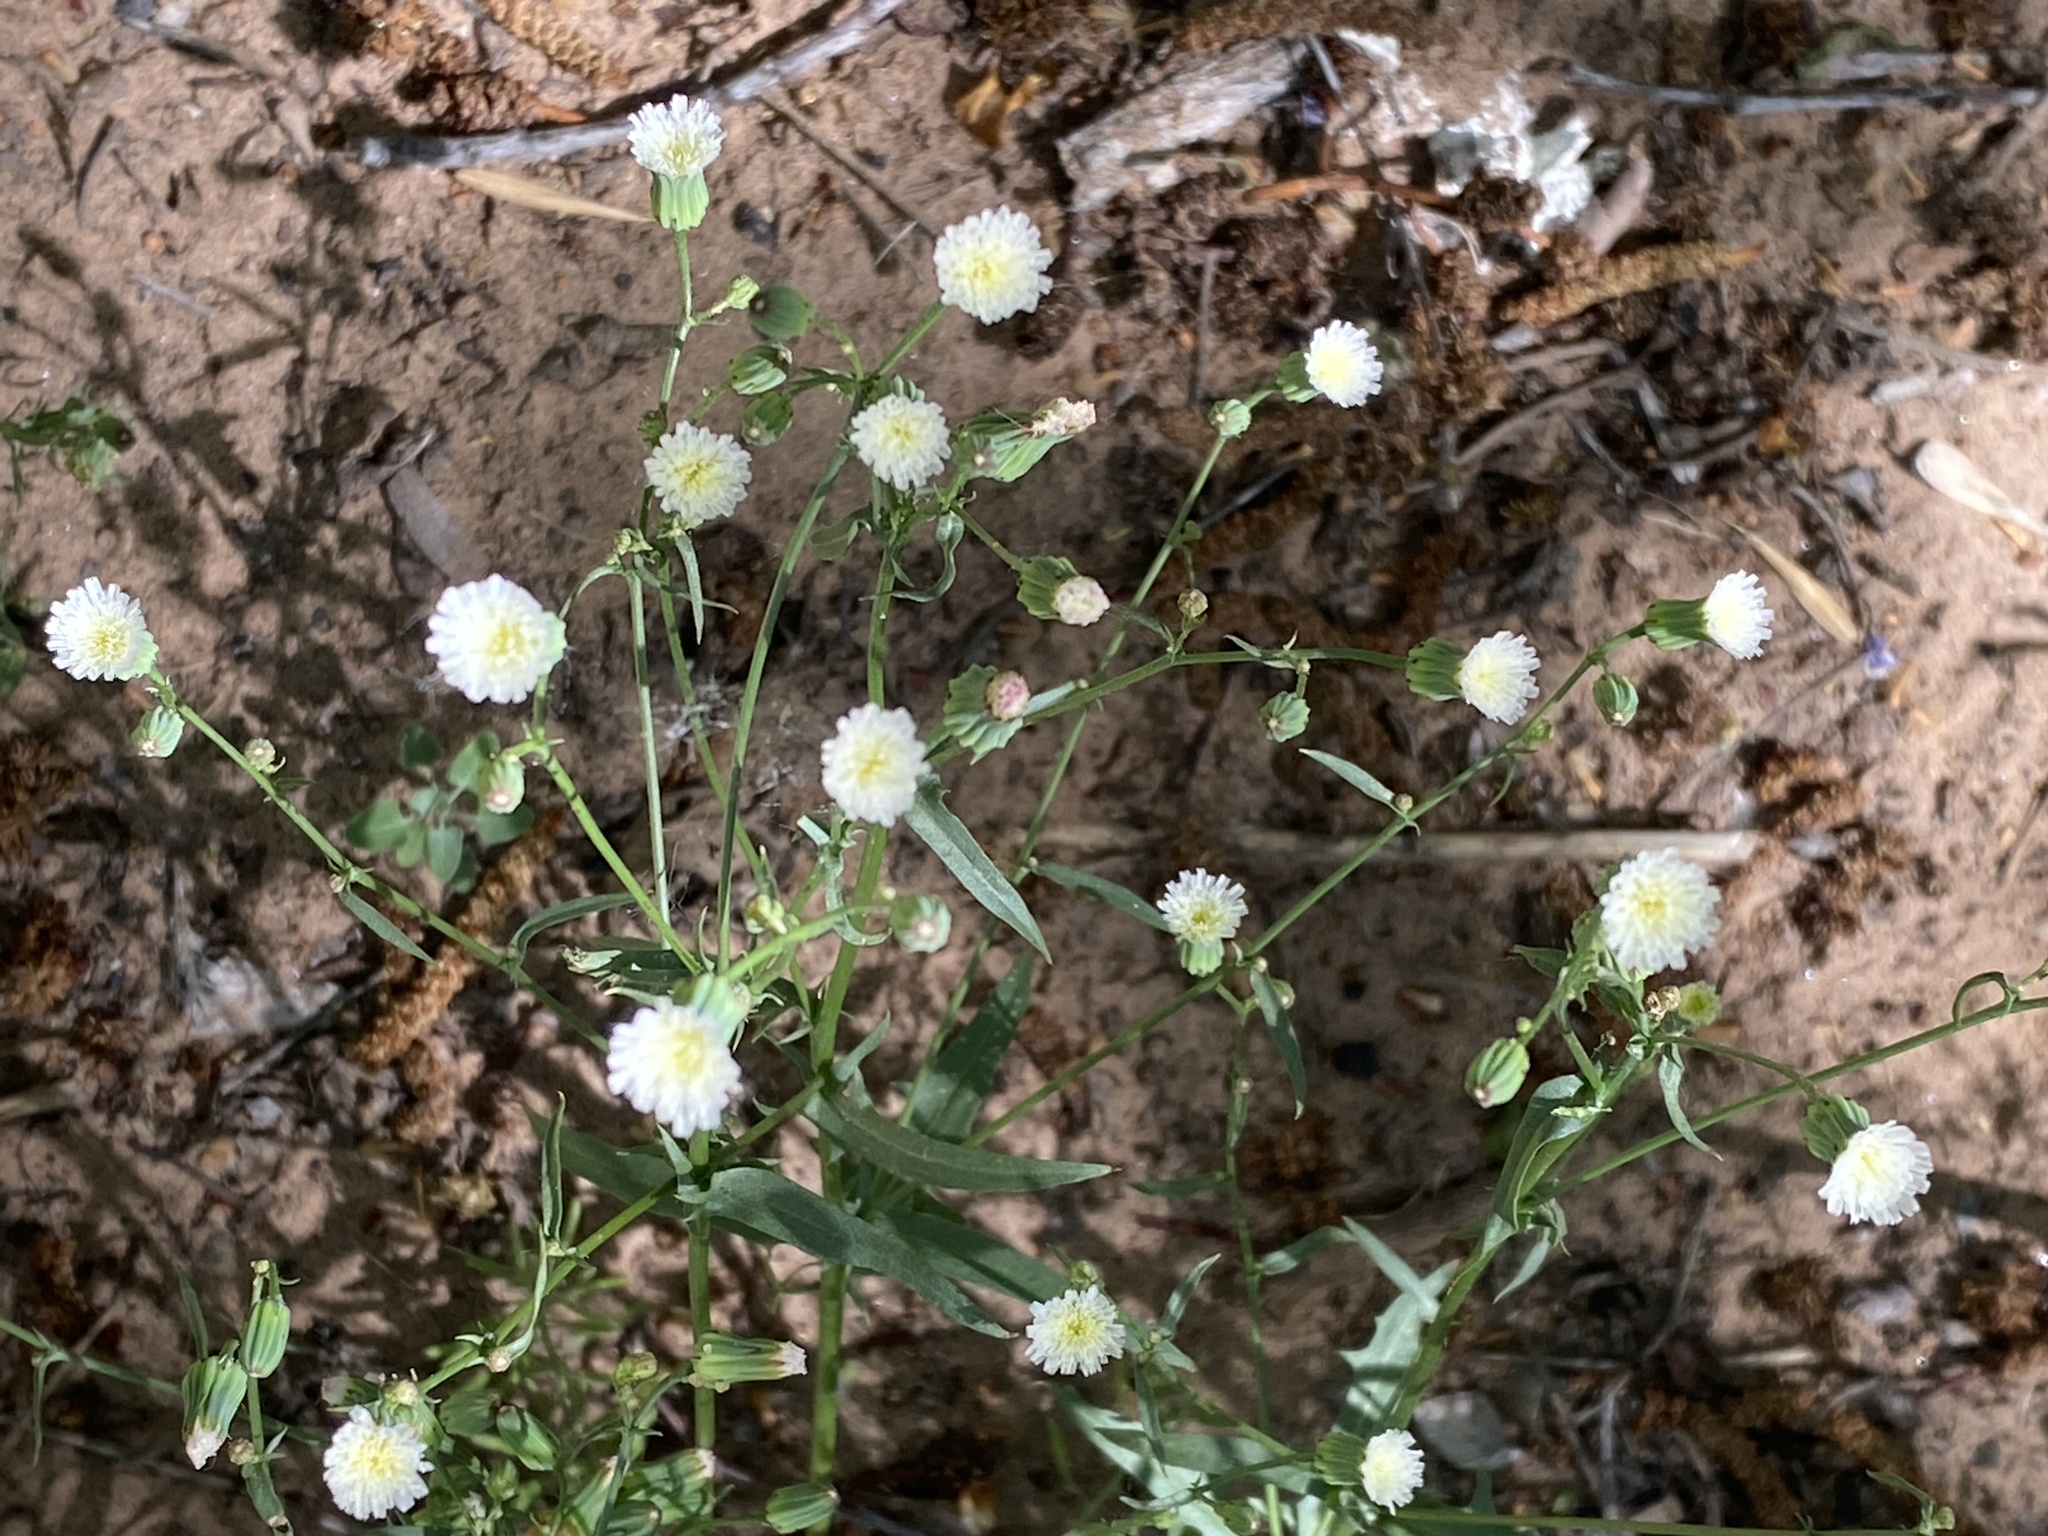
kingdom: Plantae
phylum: Tracheophyta
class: Magnoliopsida
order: Asterales
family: Asteraceae
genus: Malacothrix
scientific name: Malacothrix clevelandii
